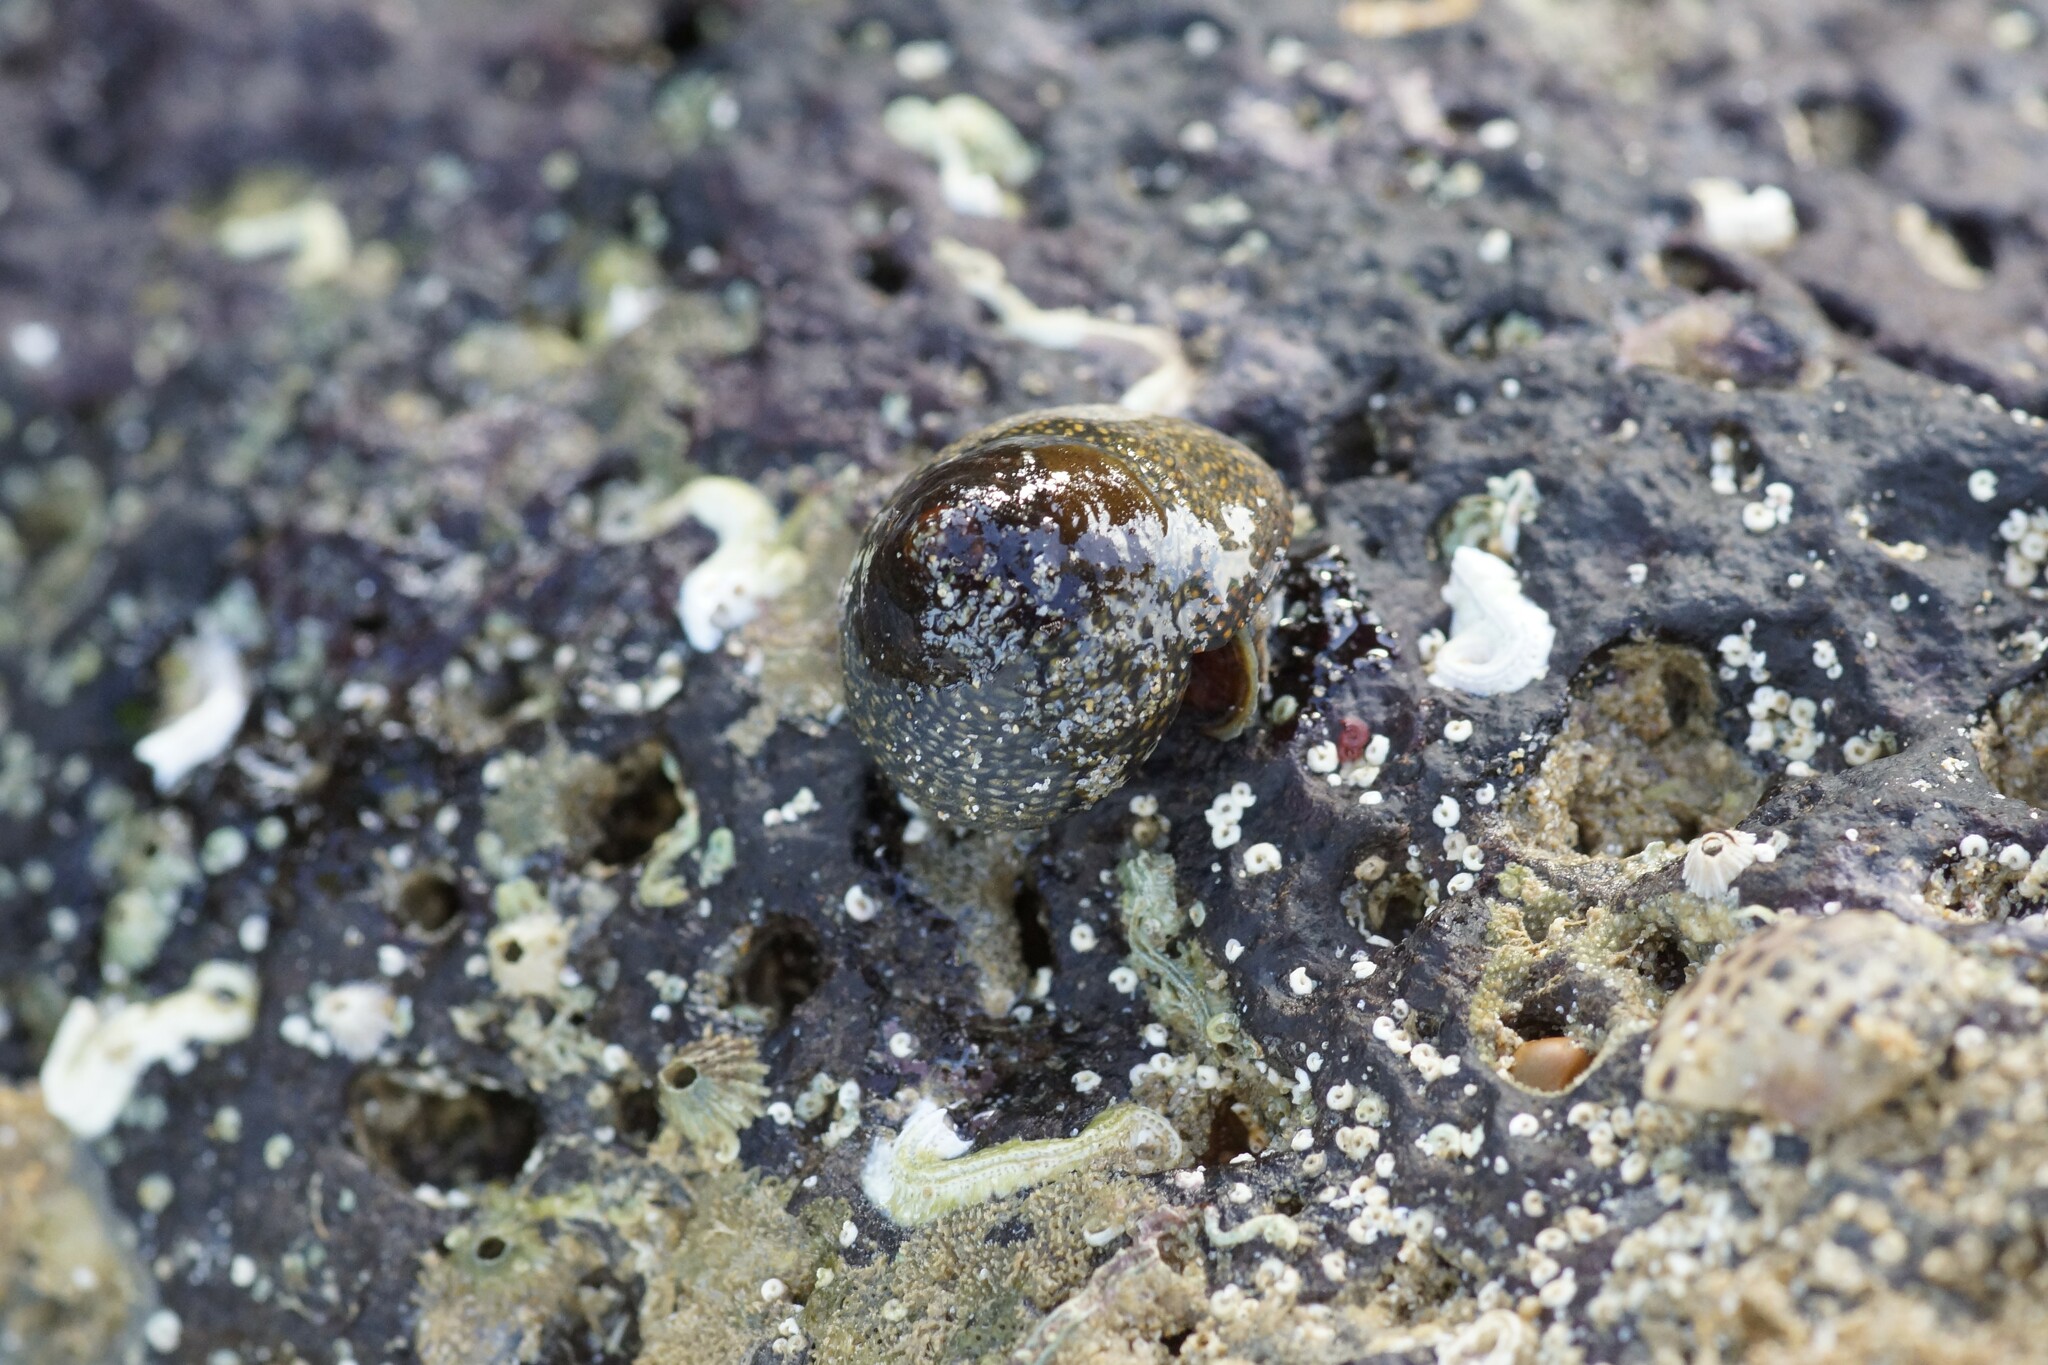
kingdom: Animalia
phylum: Mollusca
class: Gastropoda
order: Trochida
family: Trochidae
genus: Chlorodiloma
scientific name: Chlorodiloma odontis
